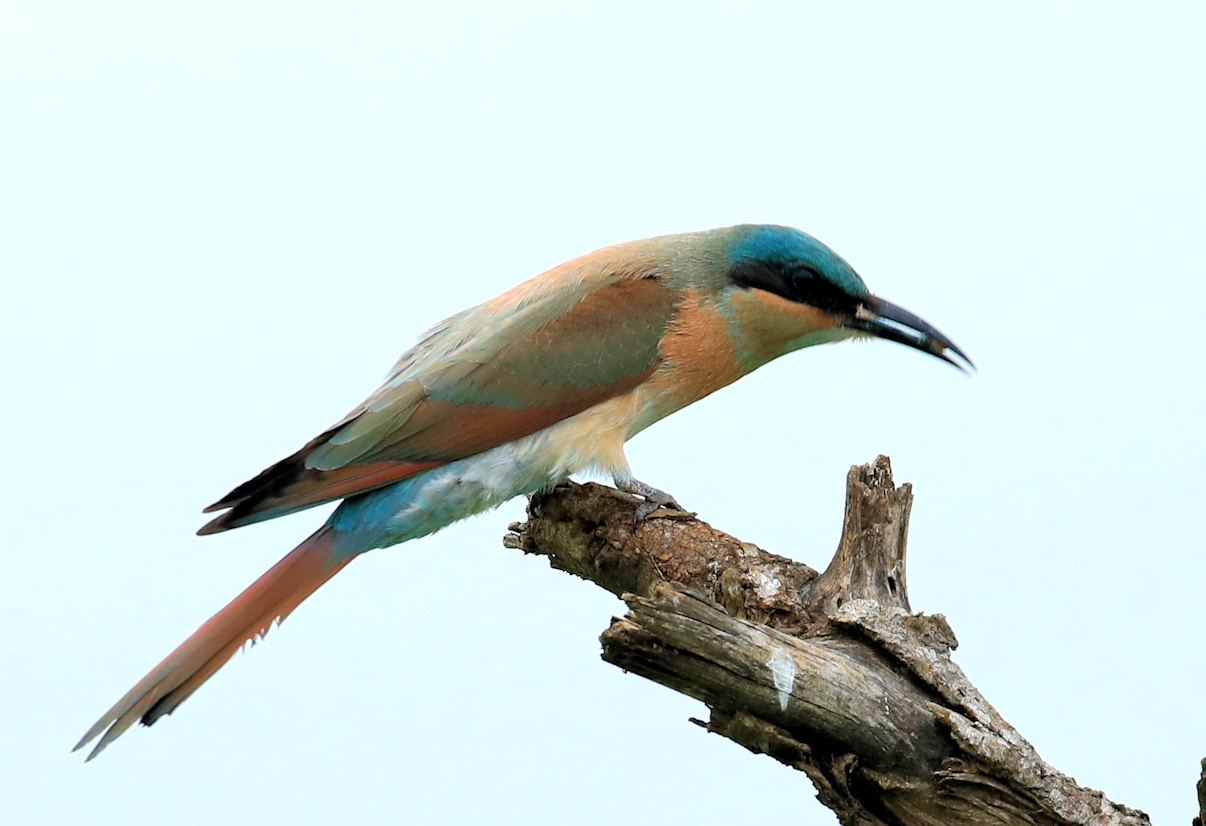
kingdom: Animalia
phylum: Chordata
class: Aves
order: Coraciiformes
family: Meropidae
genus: Merops
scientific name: Merops nubicoides
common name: Southern carmine bee-eater
